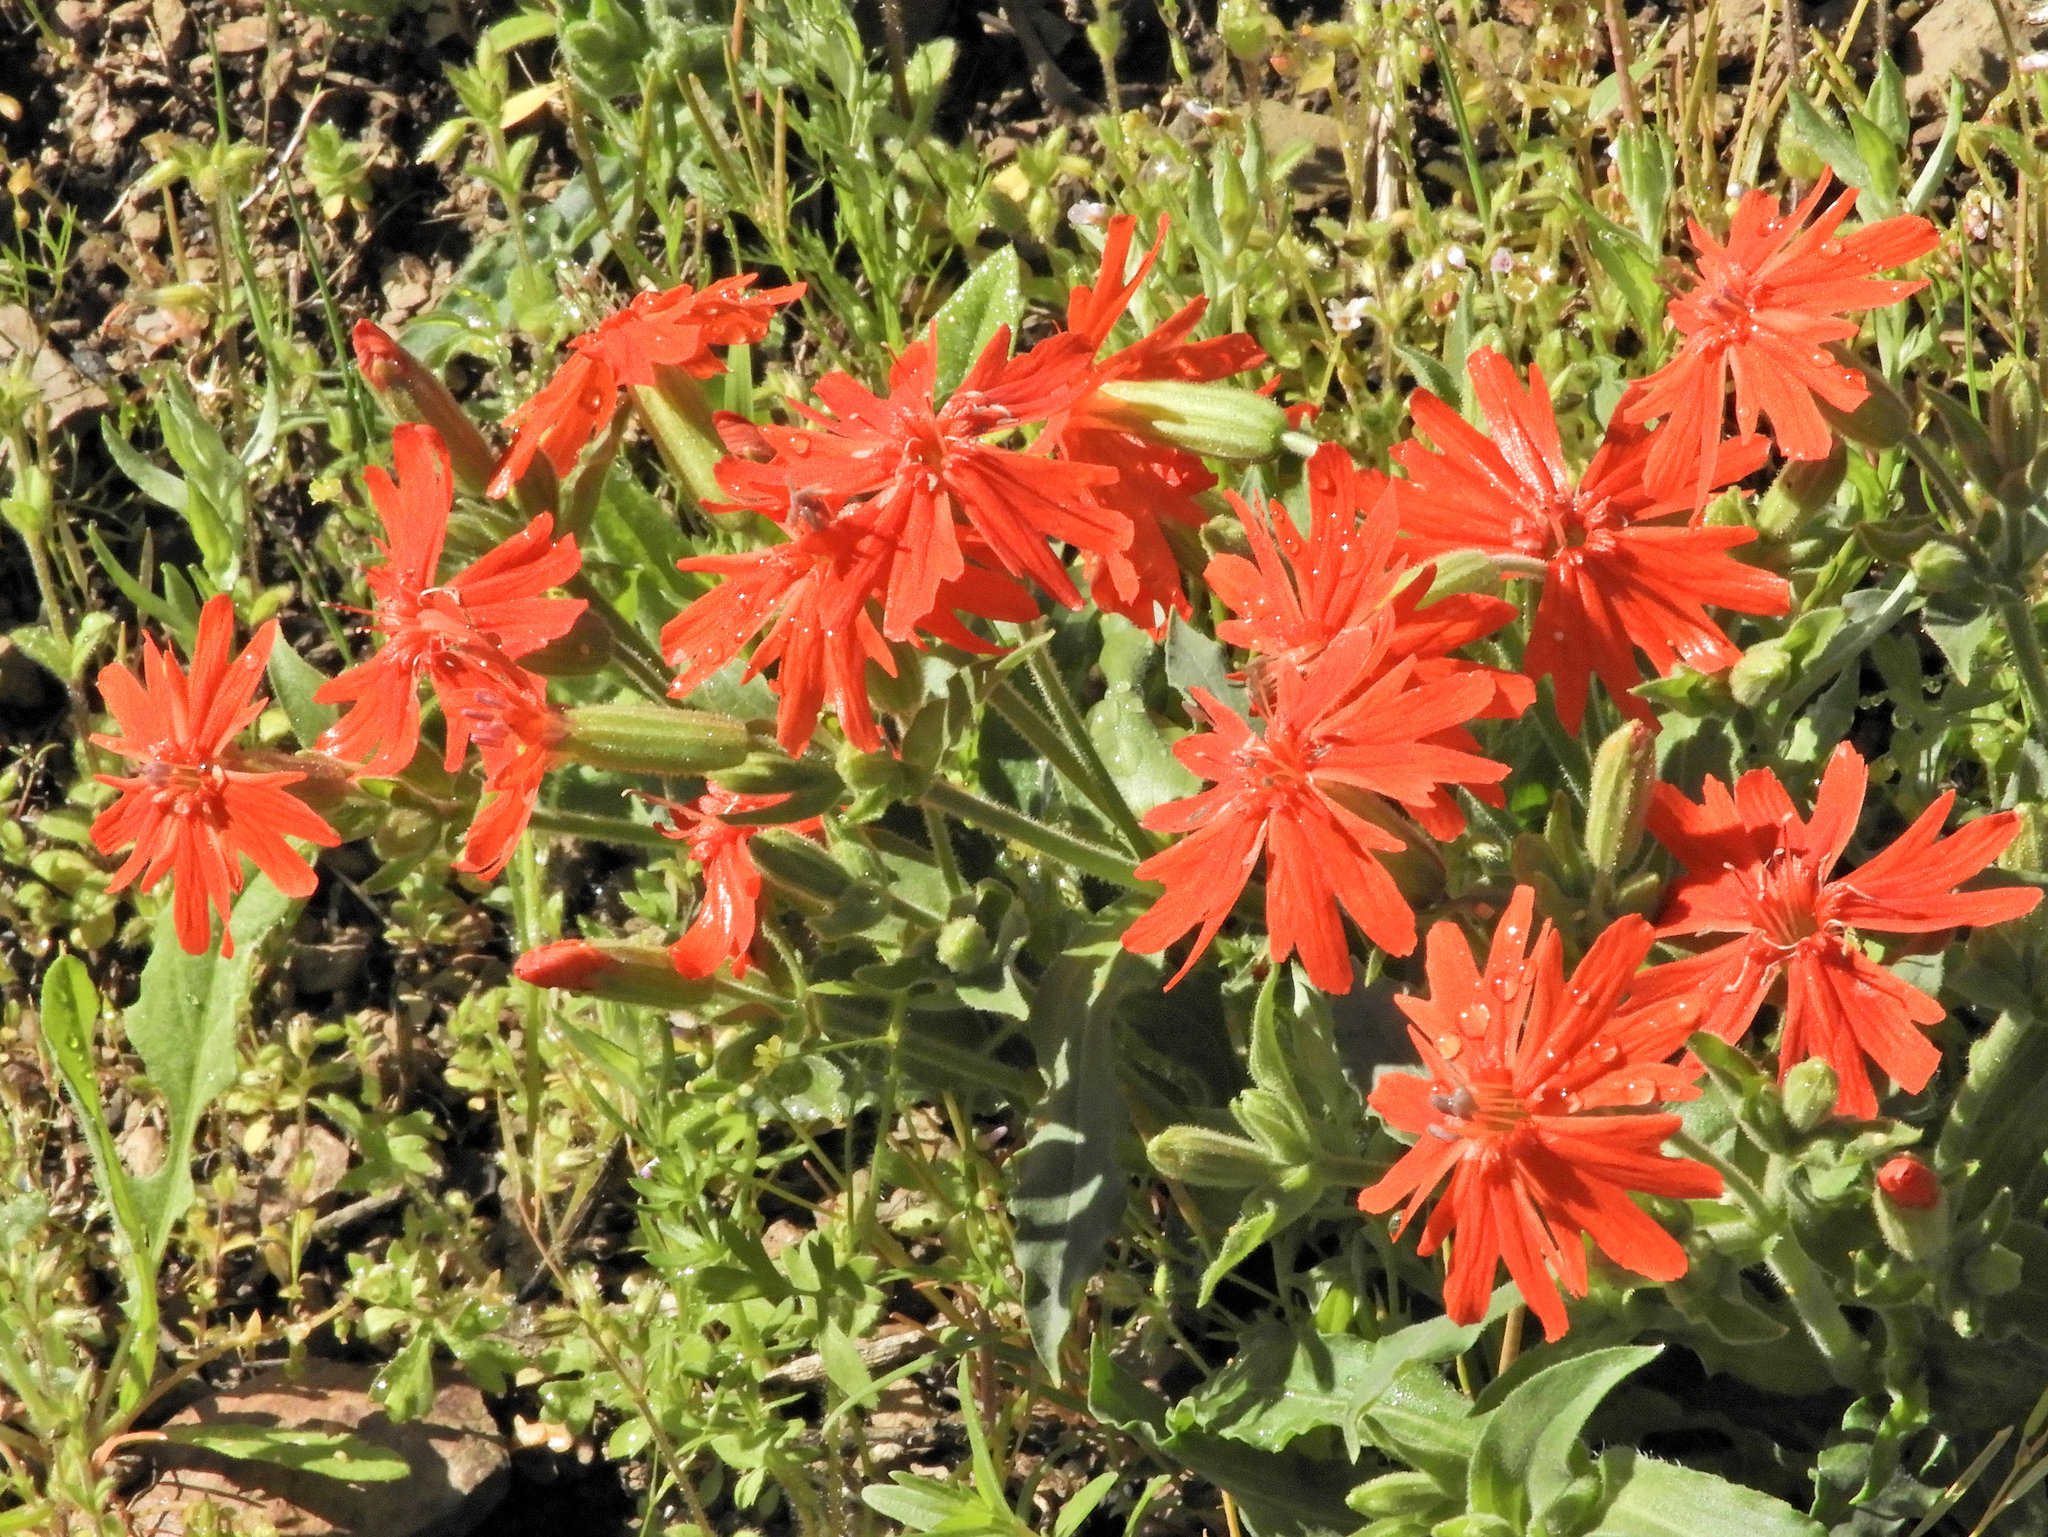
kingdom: Plantae
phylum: Tracheophyta
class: Magnoliopsida
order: Caryophyllales
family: Caryophyllaceae
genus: Silene
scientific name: Silene laciniata
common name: Indian-pink
